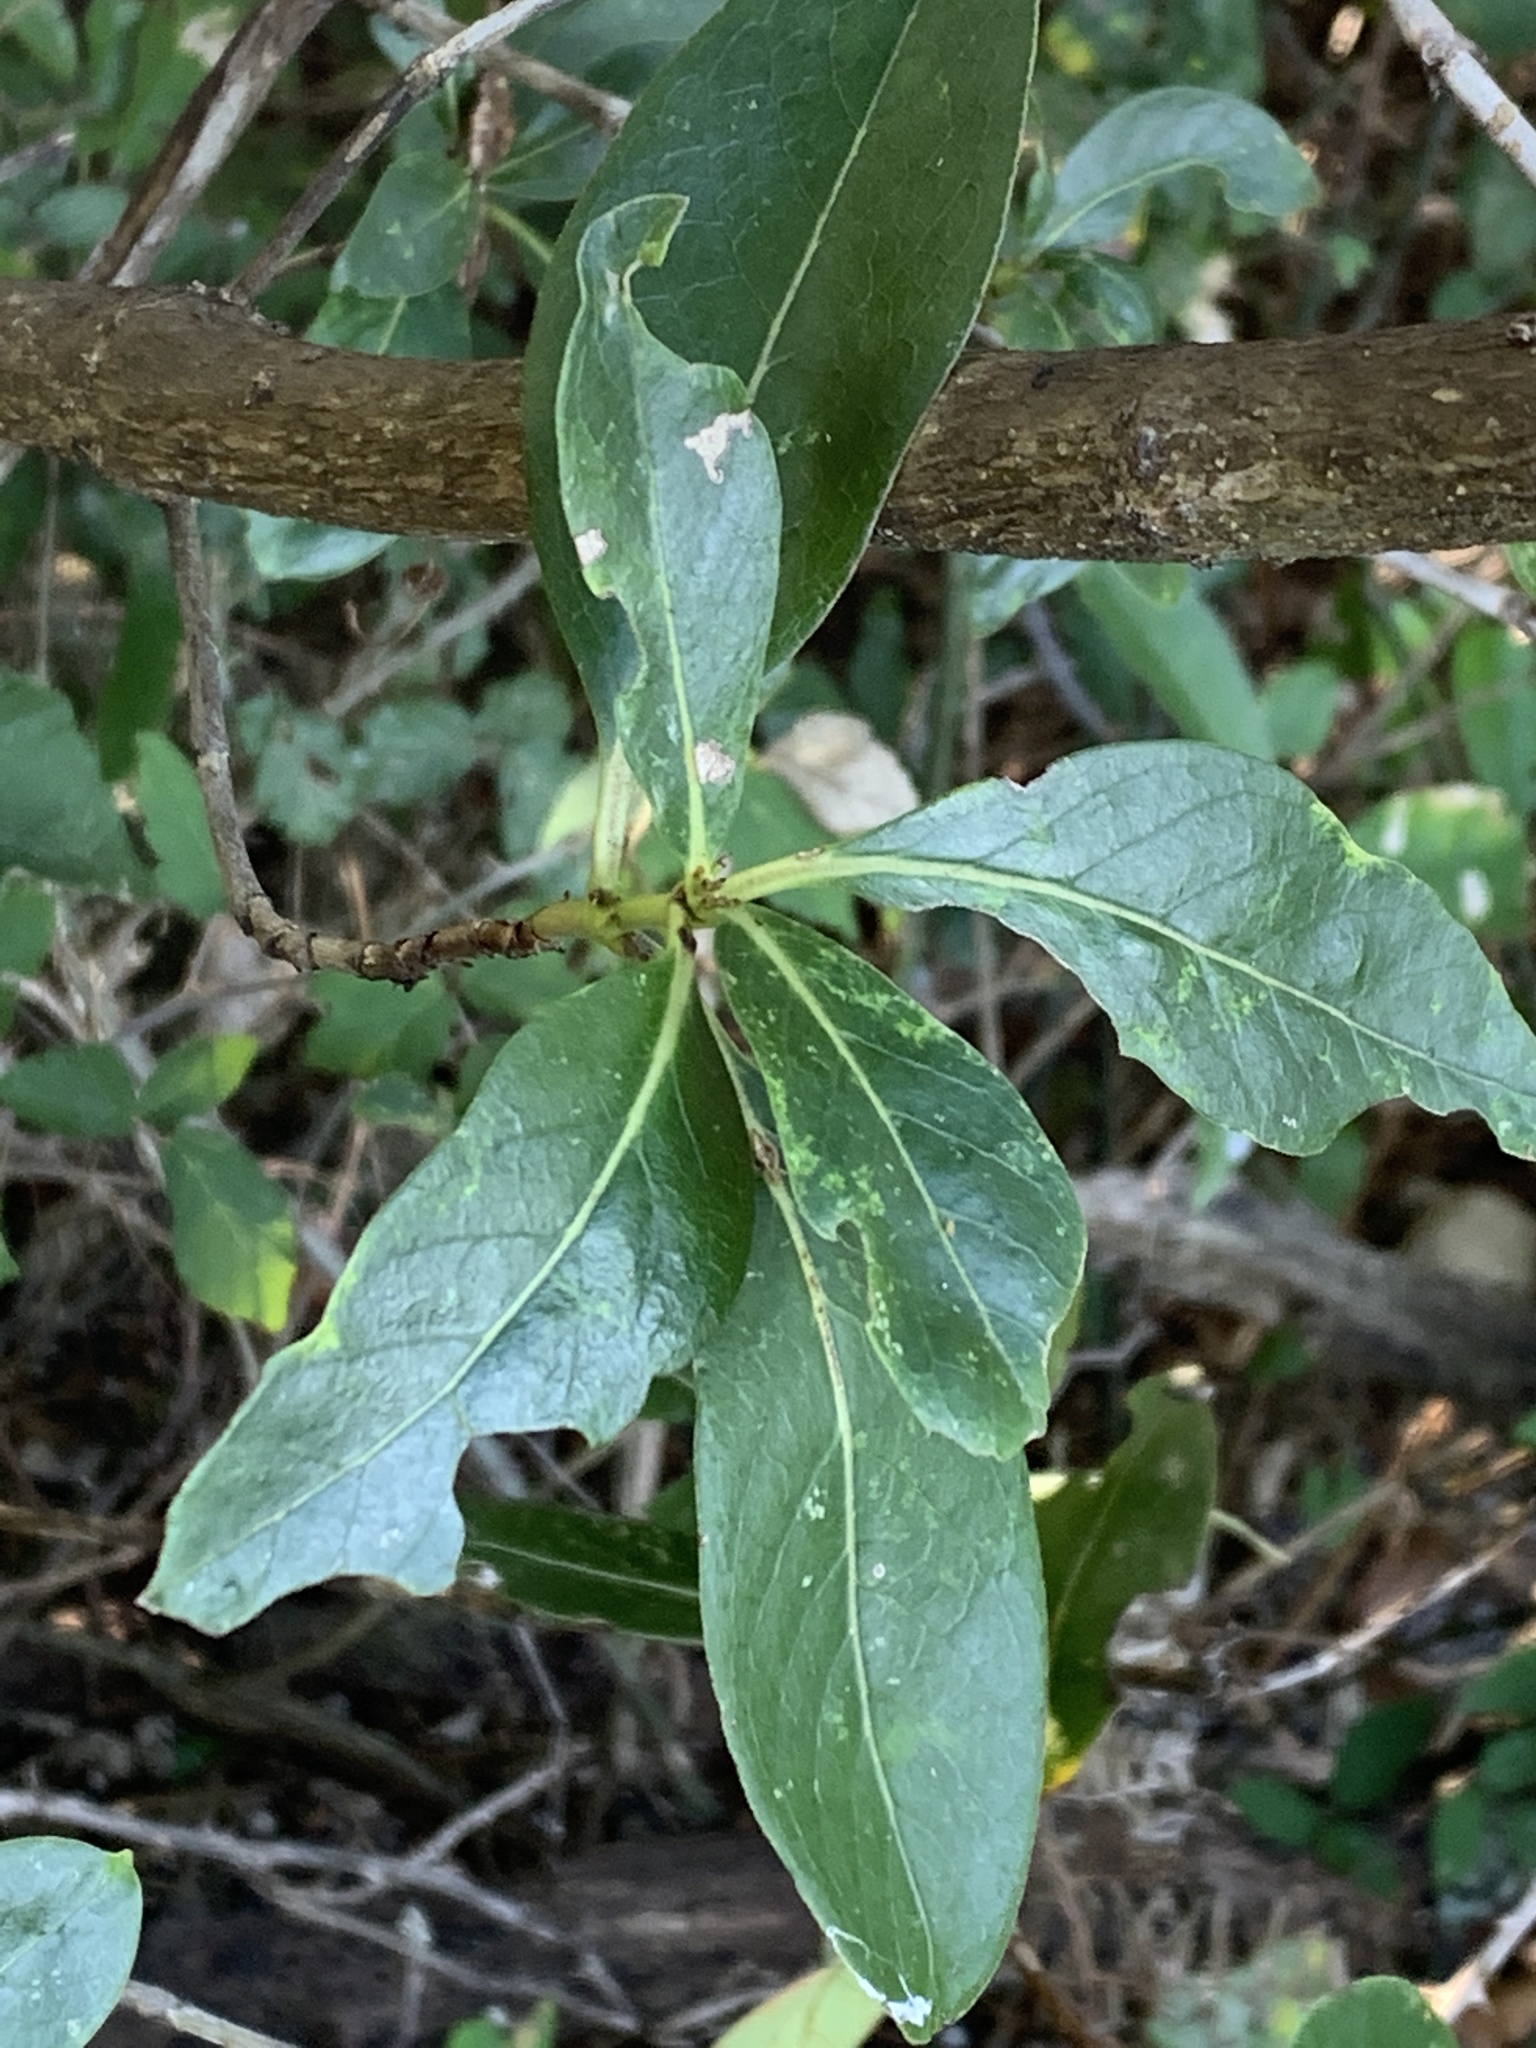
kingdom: Plantae
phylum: Tracheophyta
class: Magnoliopsida
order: Gentianales
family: Rubiaceae
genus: Coprosma
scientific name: Coprosma robusta
